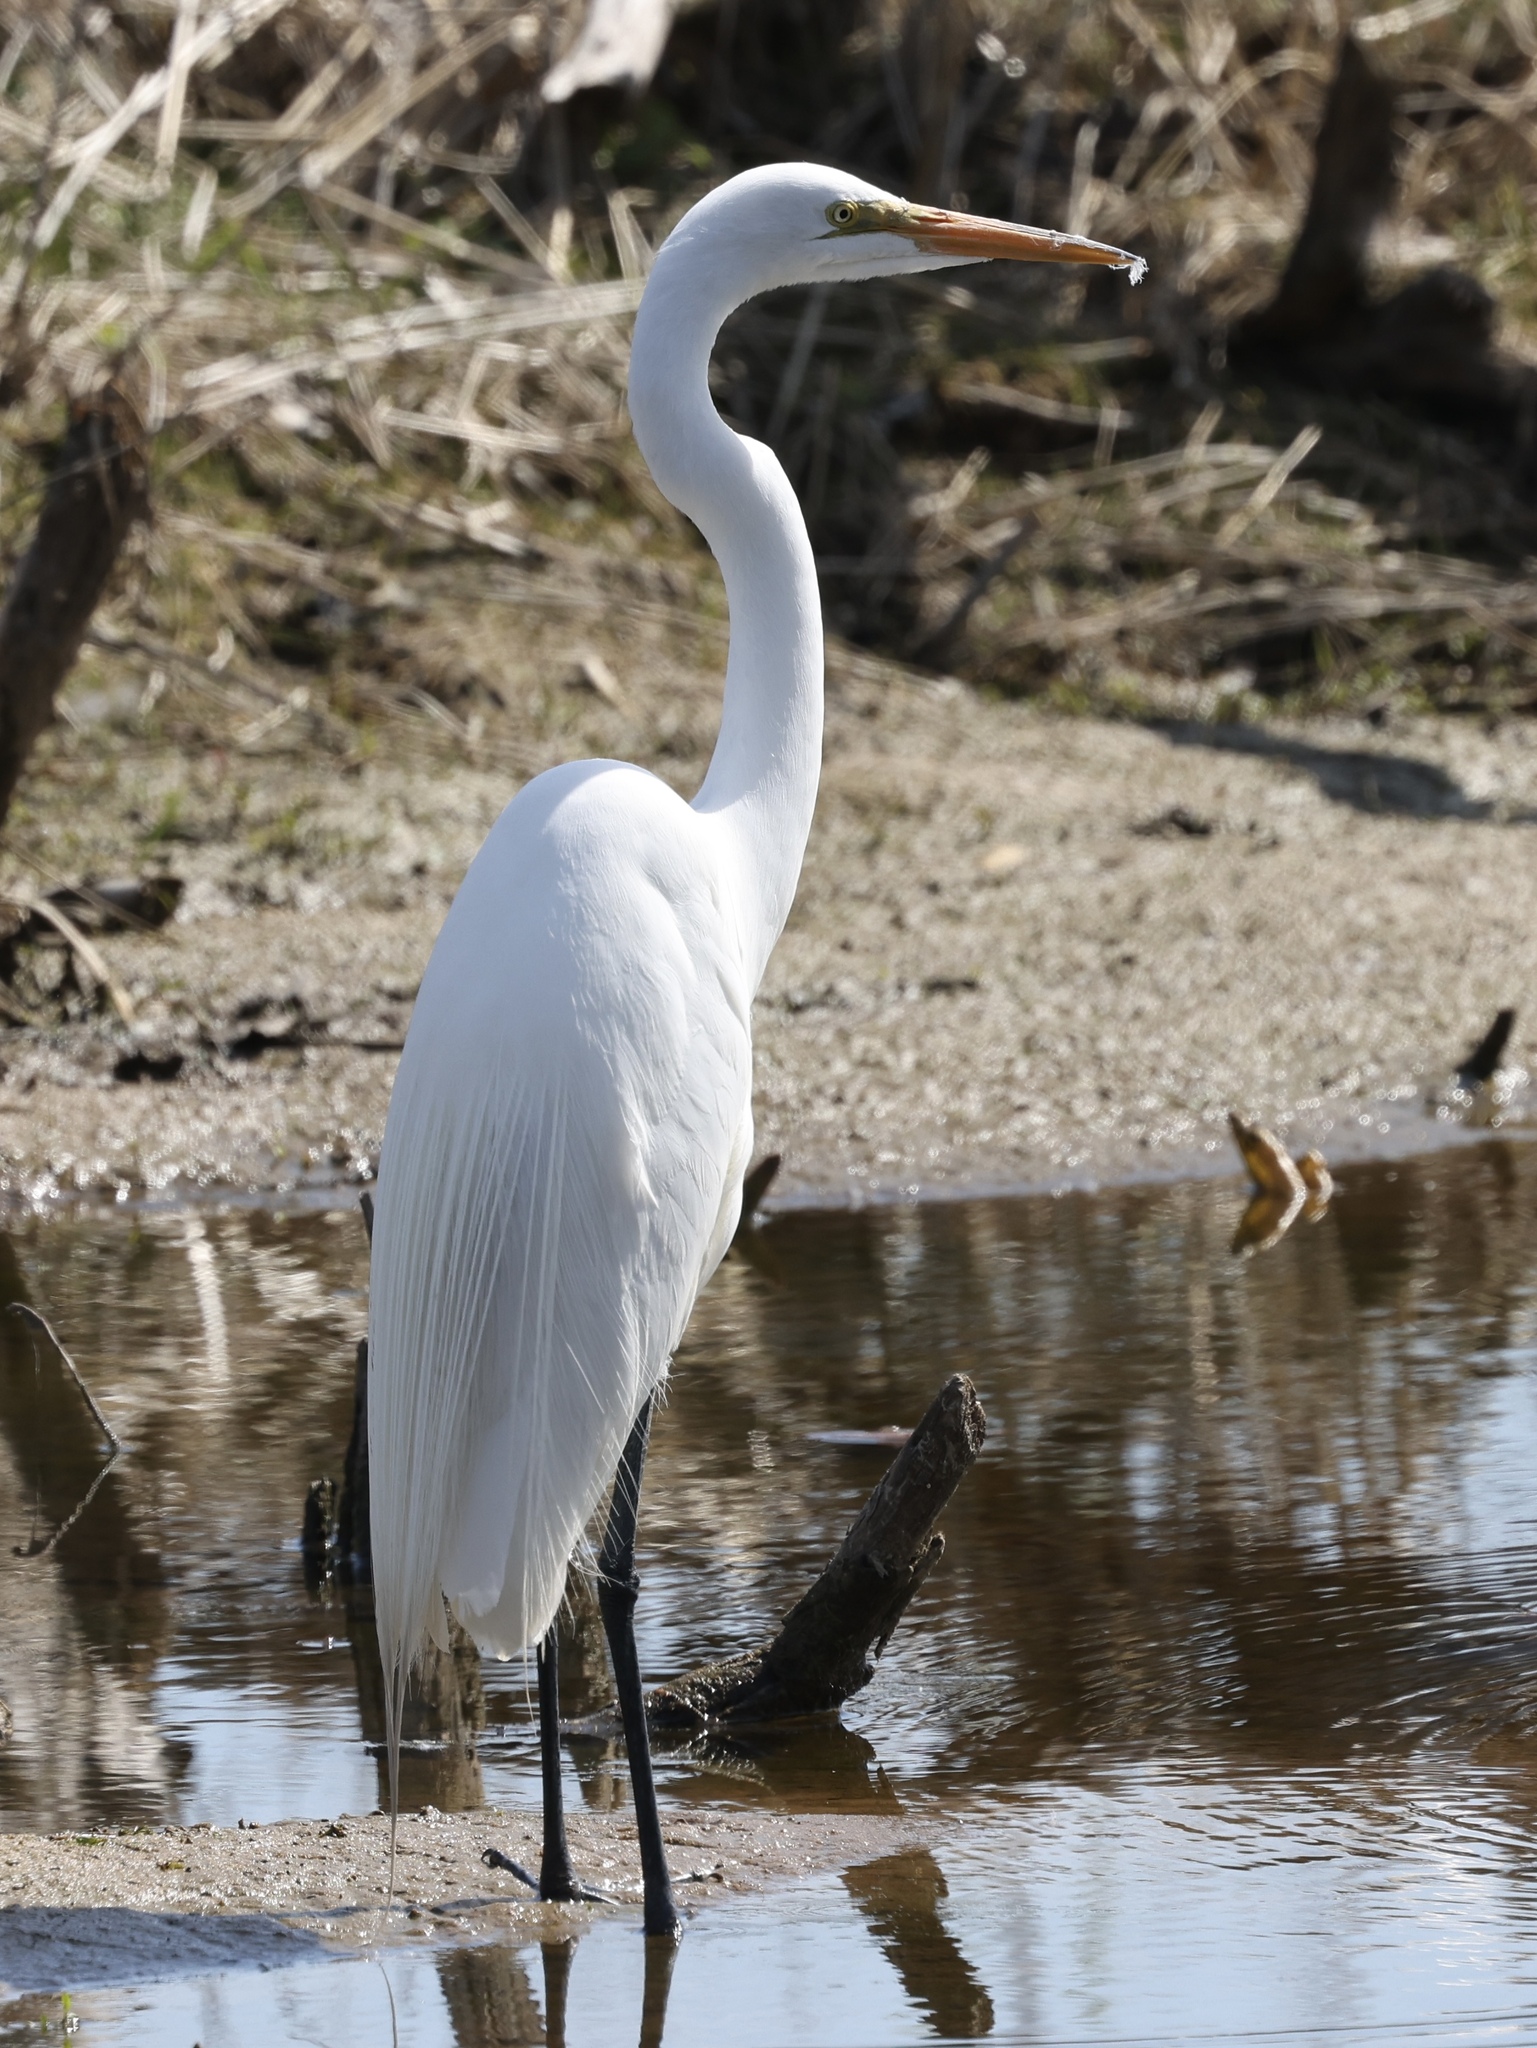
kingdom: Animalia
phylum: Chordata
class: Aves
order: Pelecaniformes
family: Ardeidae
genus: Ardea
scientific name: Ardea alba
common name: Great egret
